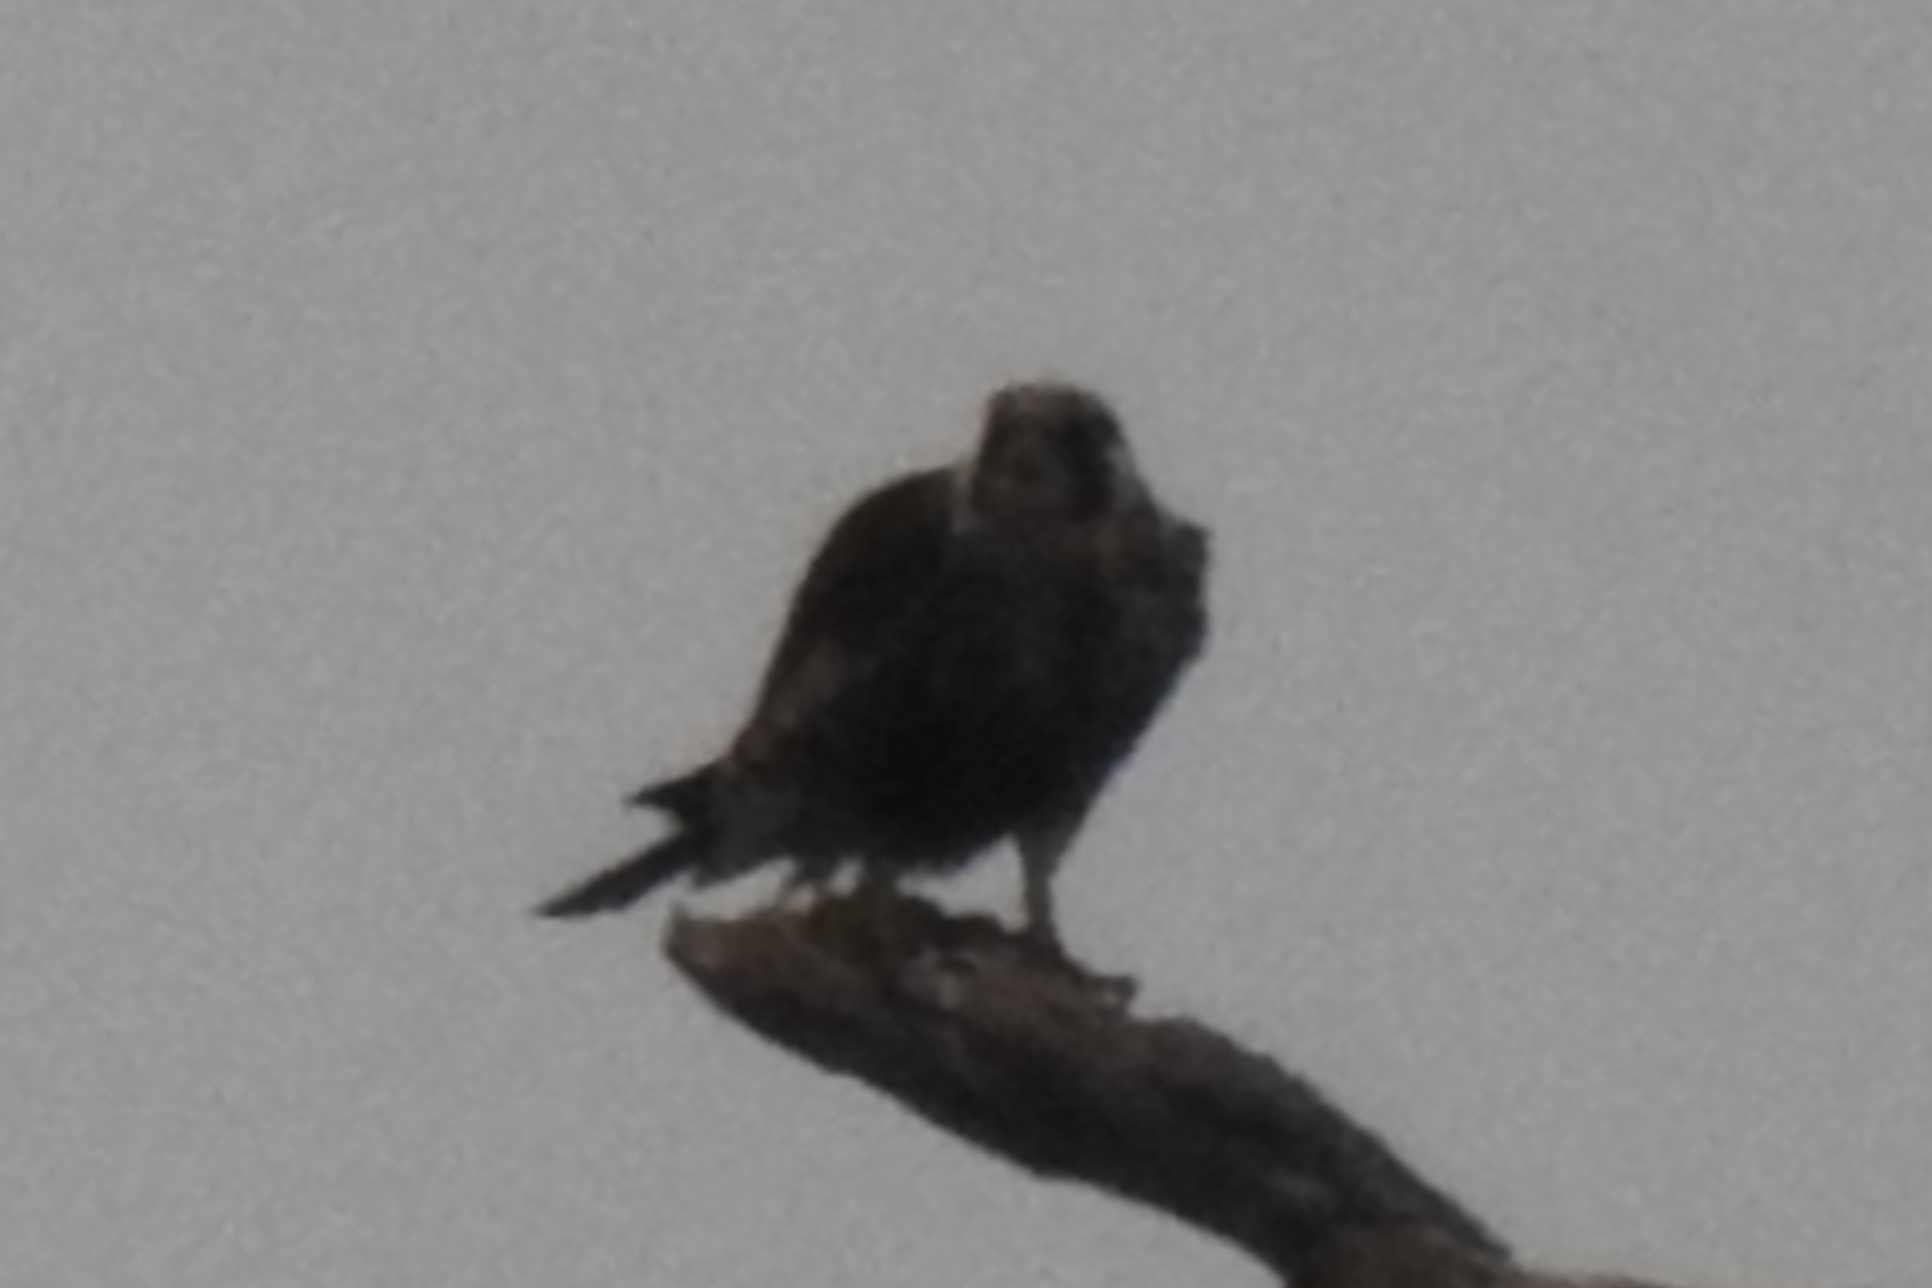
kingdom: Animalia
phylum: Chordata
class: Aves
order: Falconiformes
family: Falconidae
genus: Falco
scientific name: Falco peregrinus
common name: Peregrine falcon
